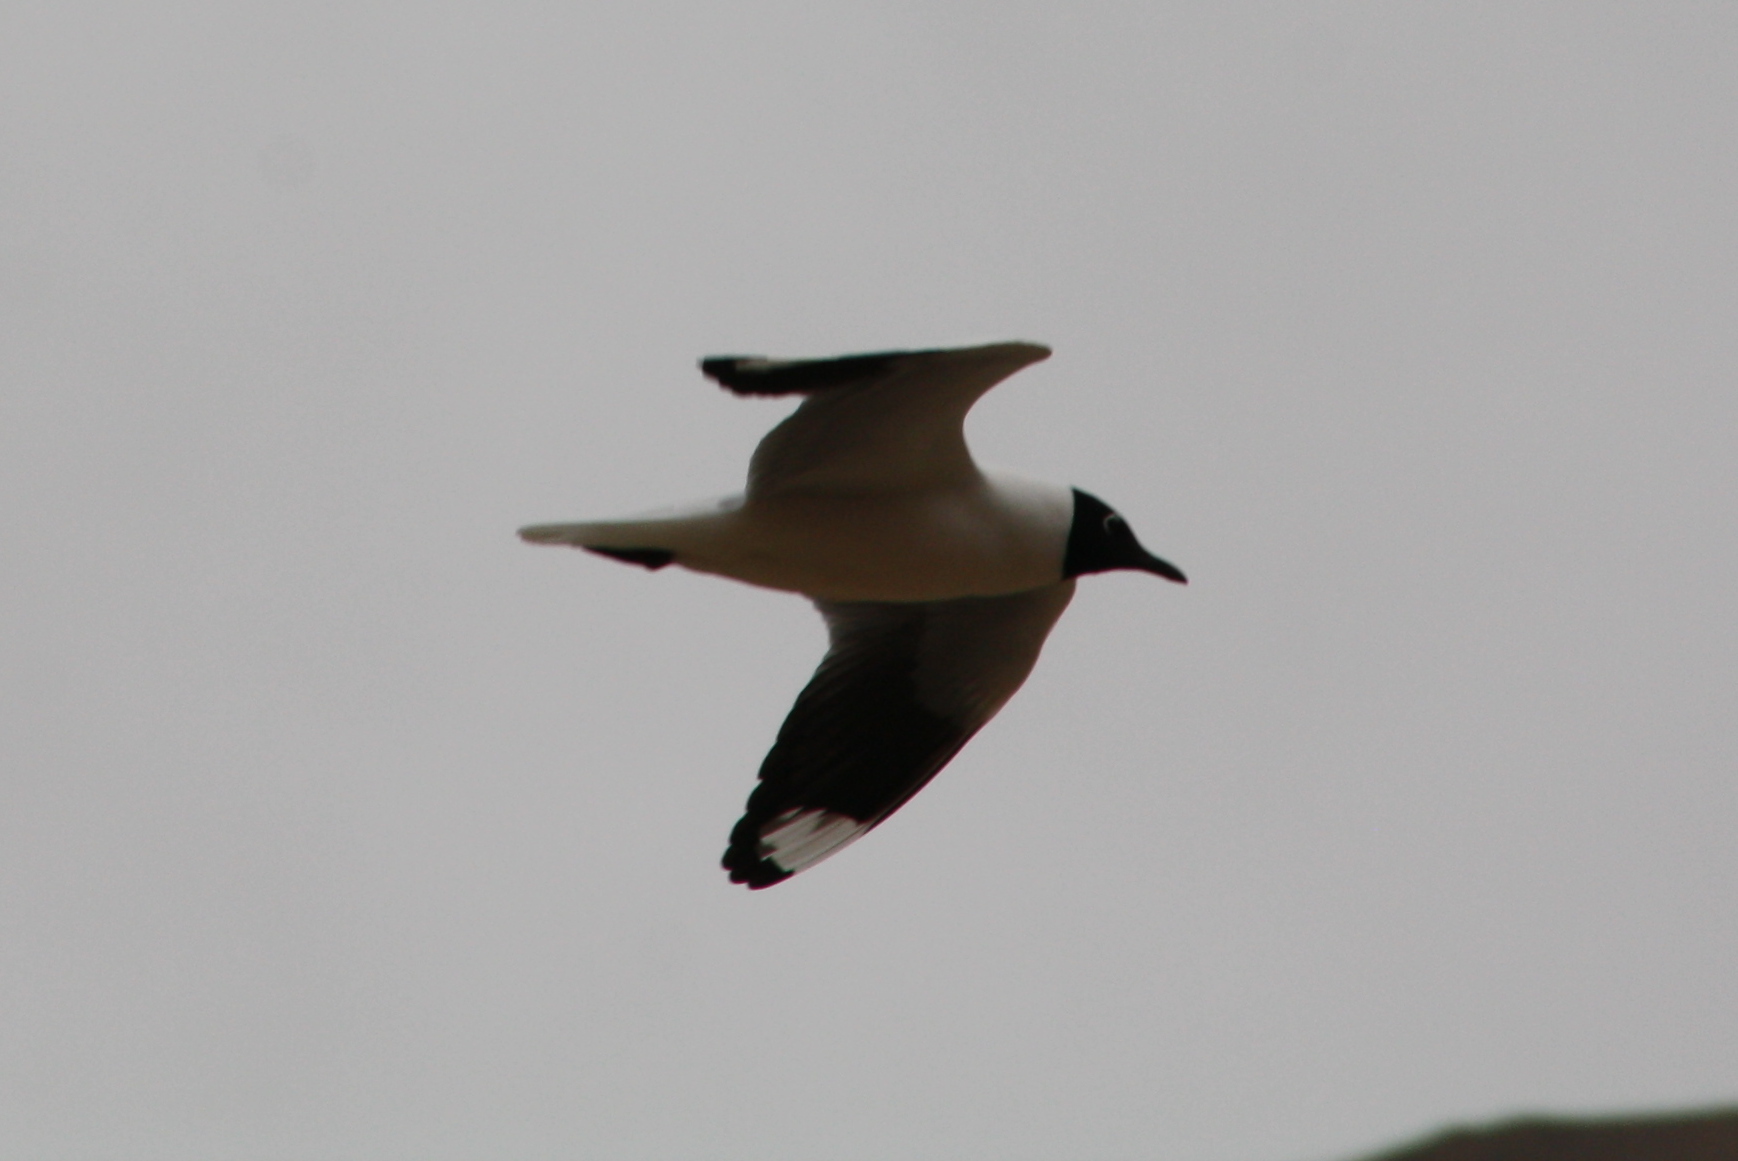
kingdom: Animalia
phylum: Chordata
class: Aves
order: Charadriiformes
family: Laridae
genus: Chroicocephalus
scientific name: Chroicocephalus serranus
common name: Andean gull
